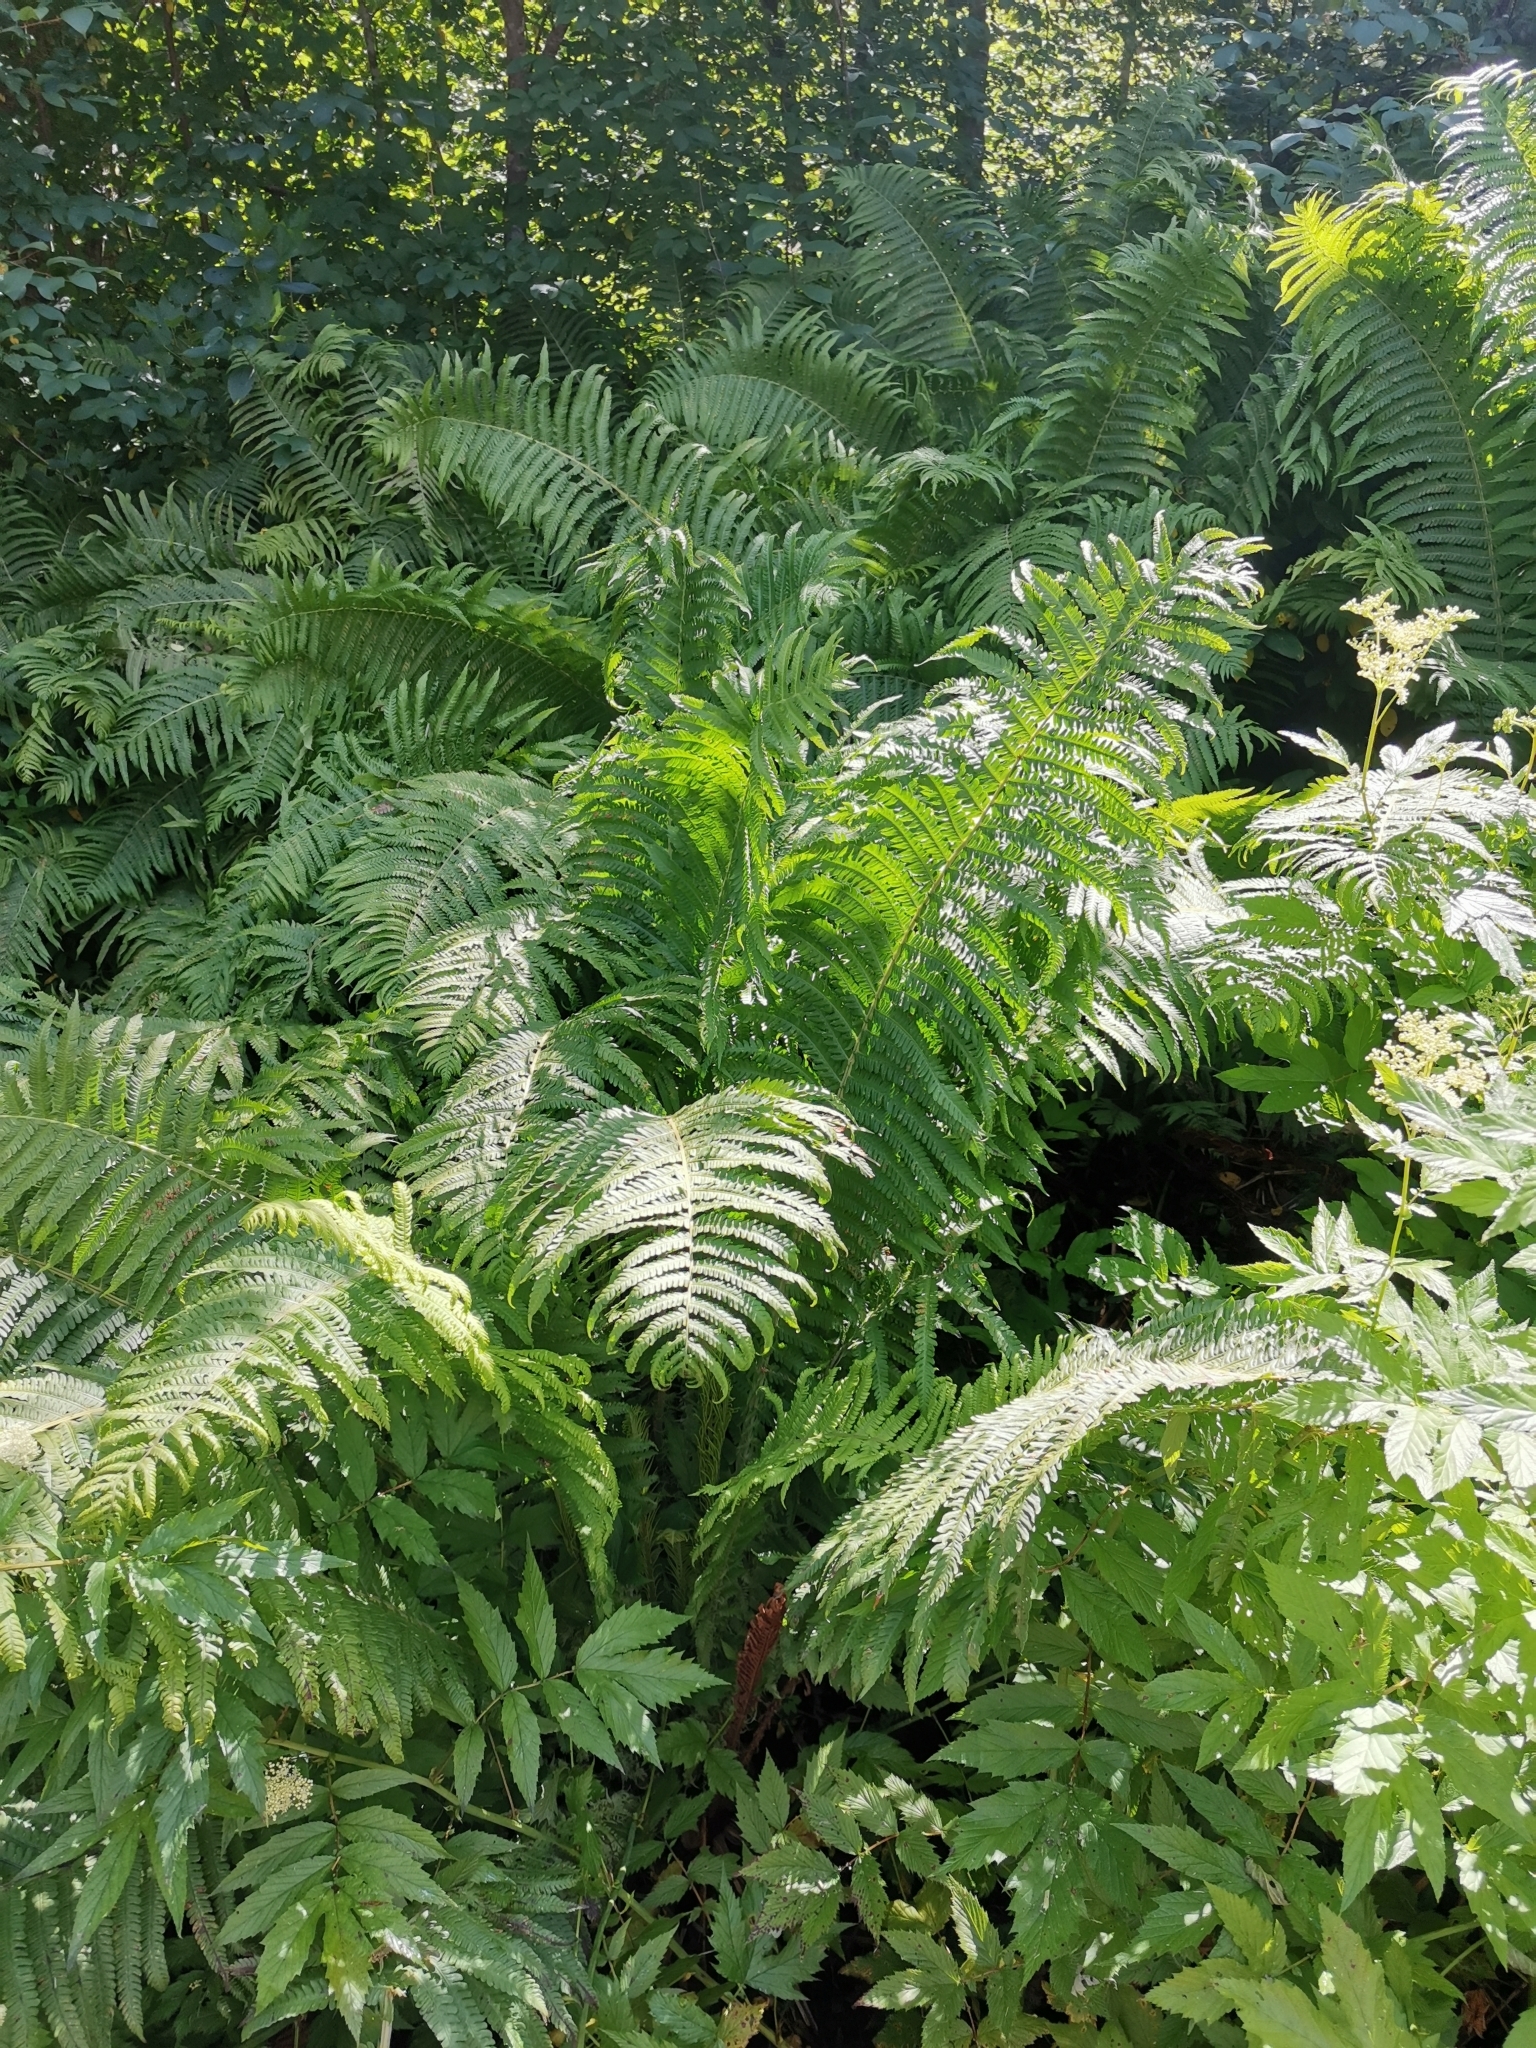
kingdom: Plantae
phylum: Tracheophyta
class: Polypodiopsida
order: Polypodiales
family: Onocleaceae
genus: Matteuccia
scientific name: Matteuccia struthiopteris
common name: Ostrich fern
